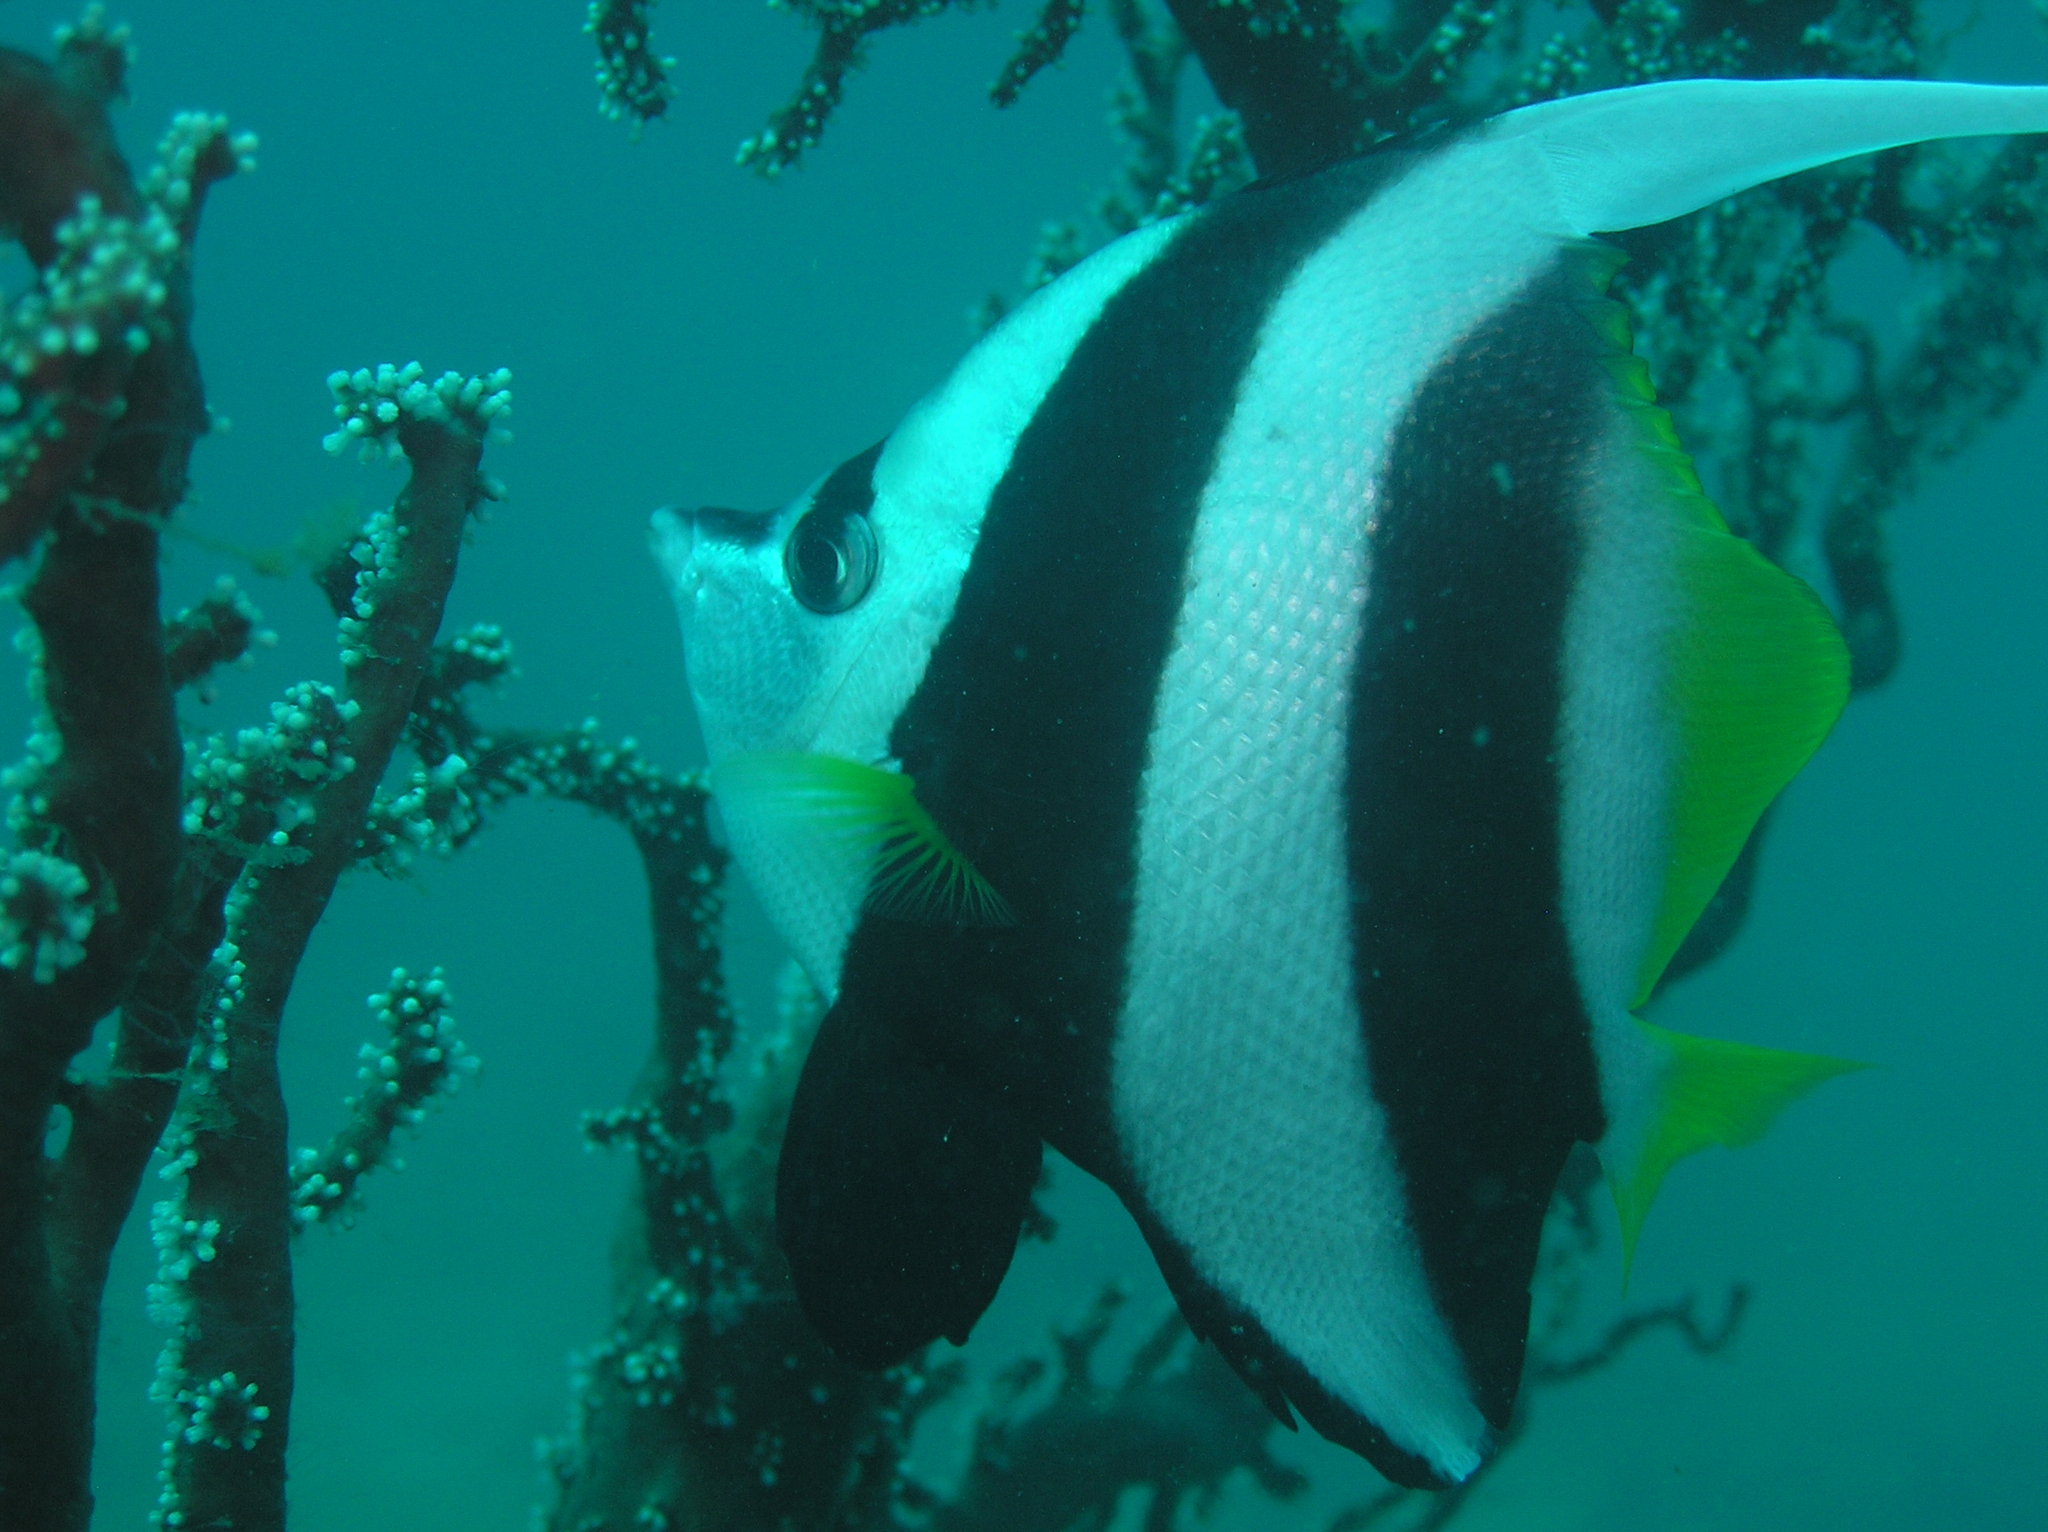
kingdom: Animalia
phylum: Chordata
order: Perciformes
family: Chaetodontidae
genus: Heniochus
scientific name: Heniochus acuminatus
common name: Pennant coralfish
